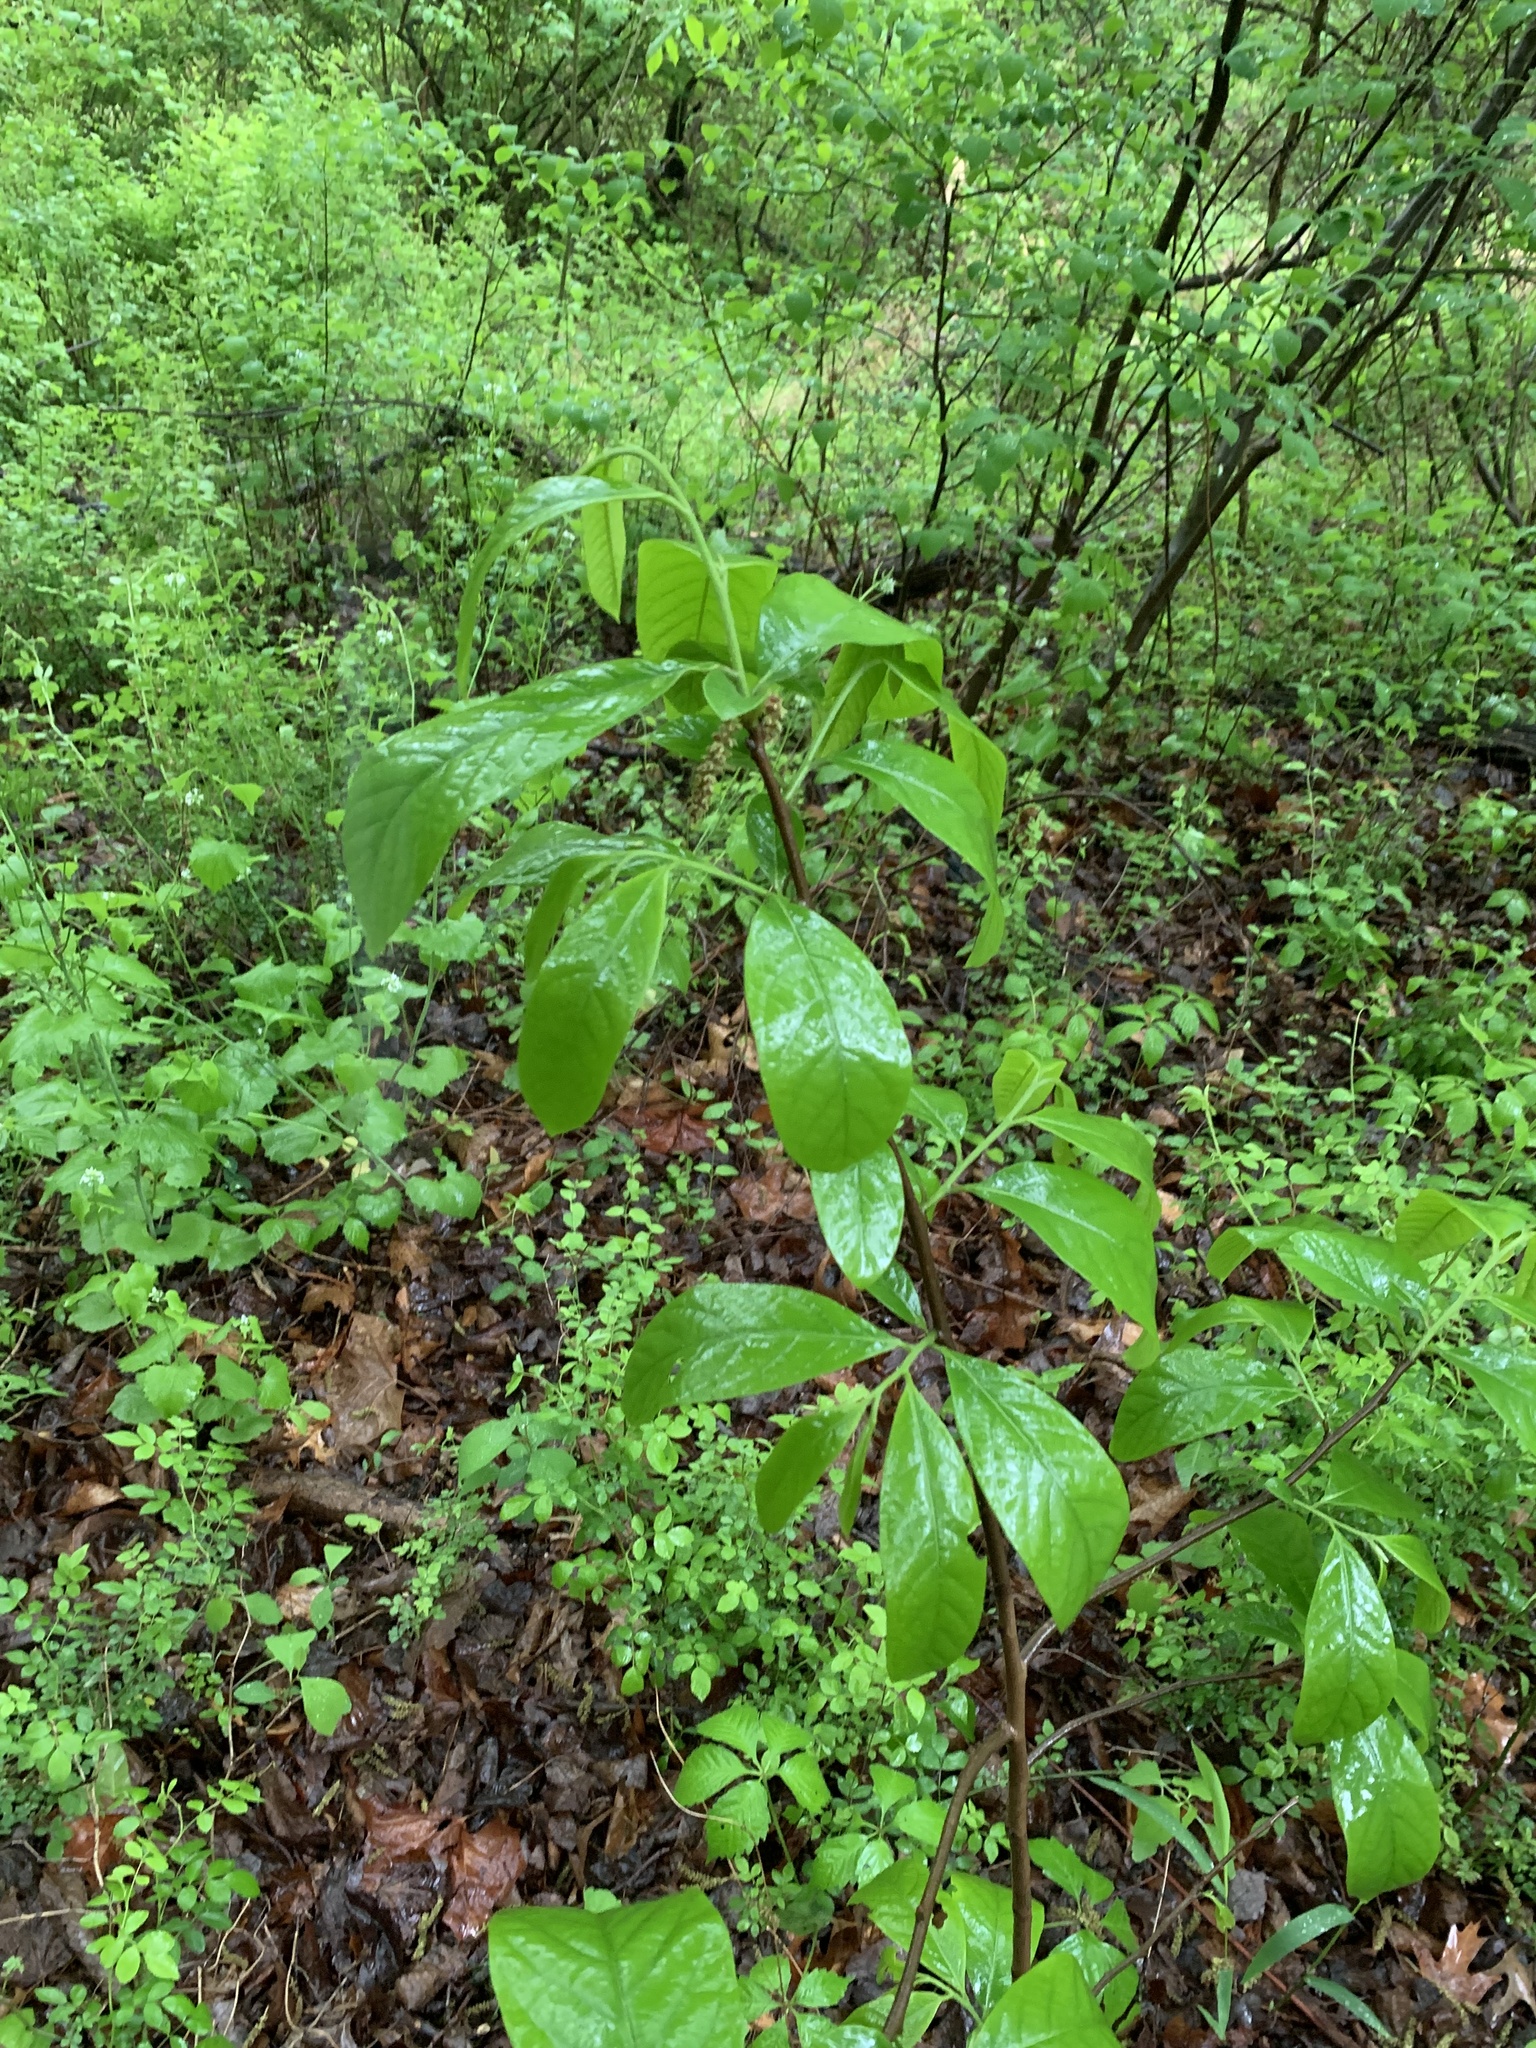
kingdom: Plantae
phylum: Tracheophyta
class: Magnoliopsida
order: Magnoliales
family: Annonaceae
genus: Asimina
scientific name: Asimina triloba
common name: Dog-banana
